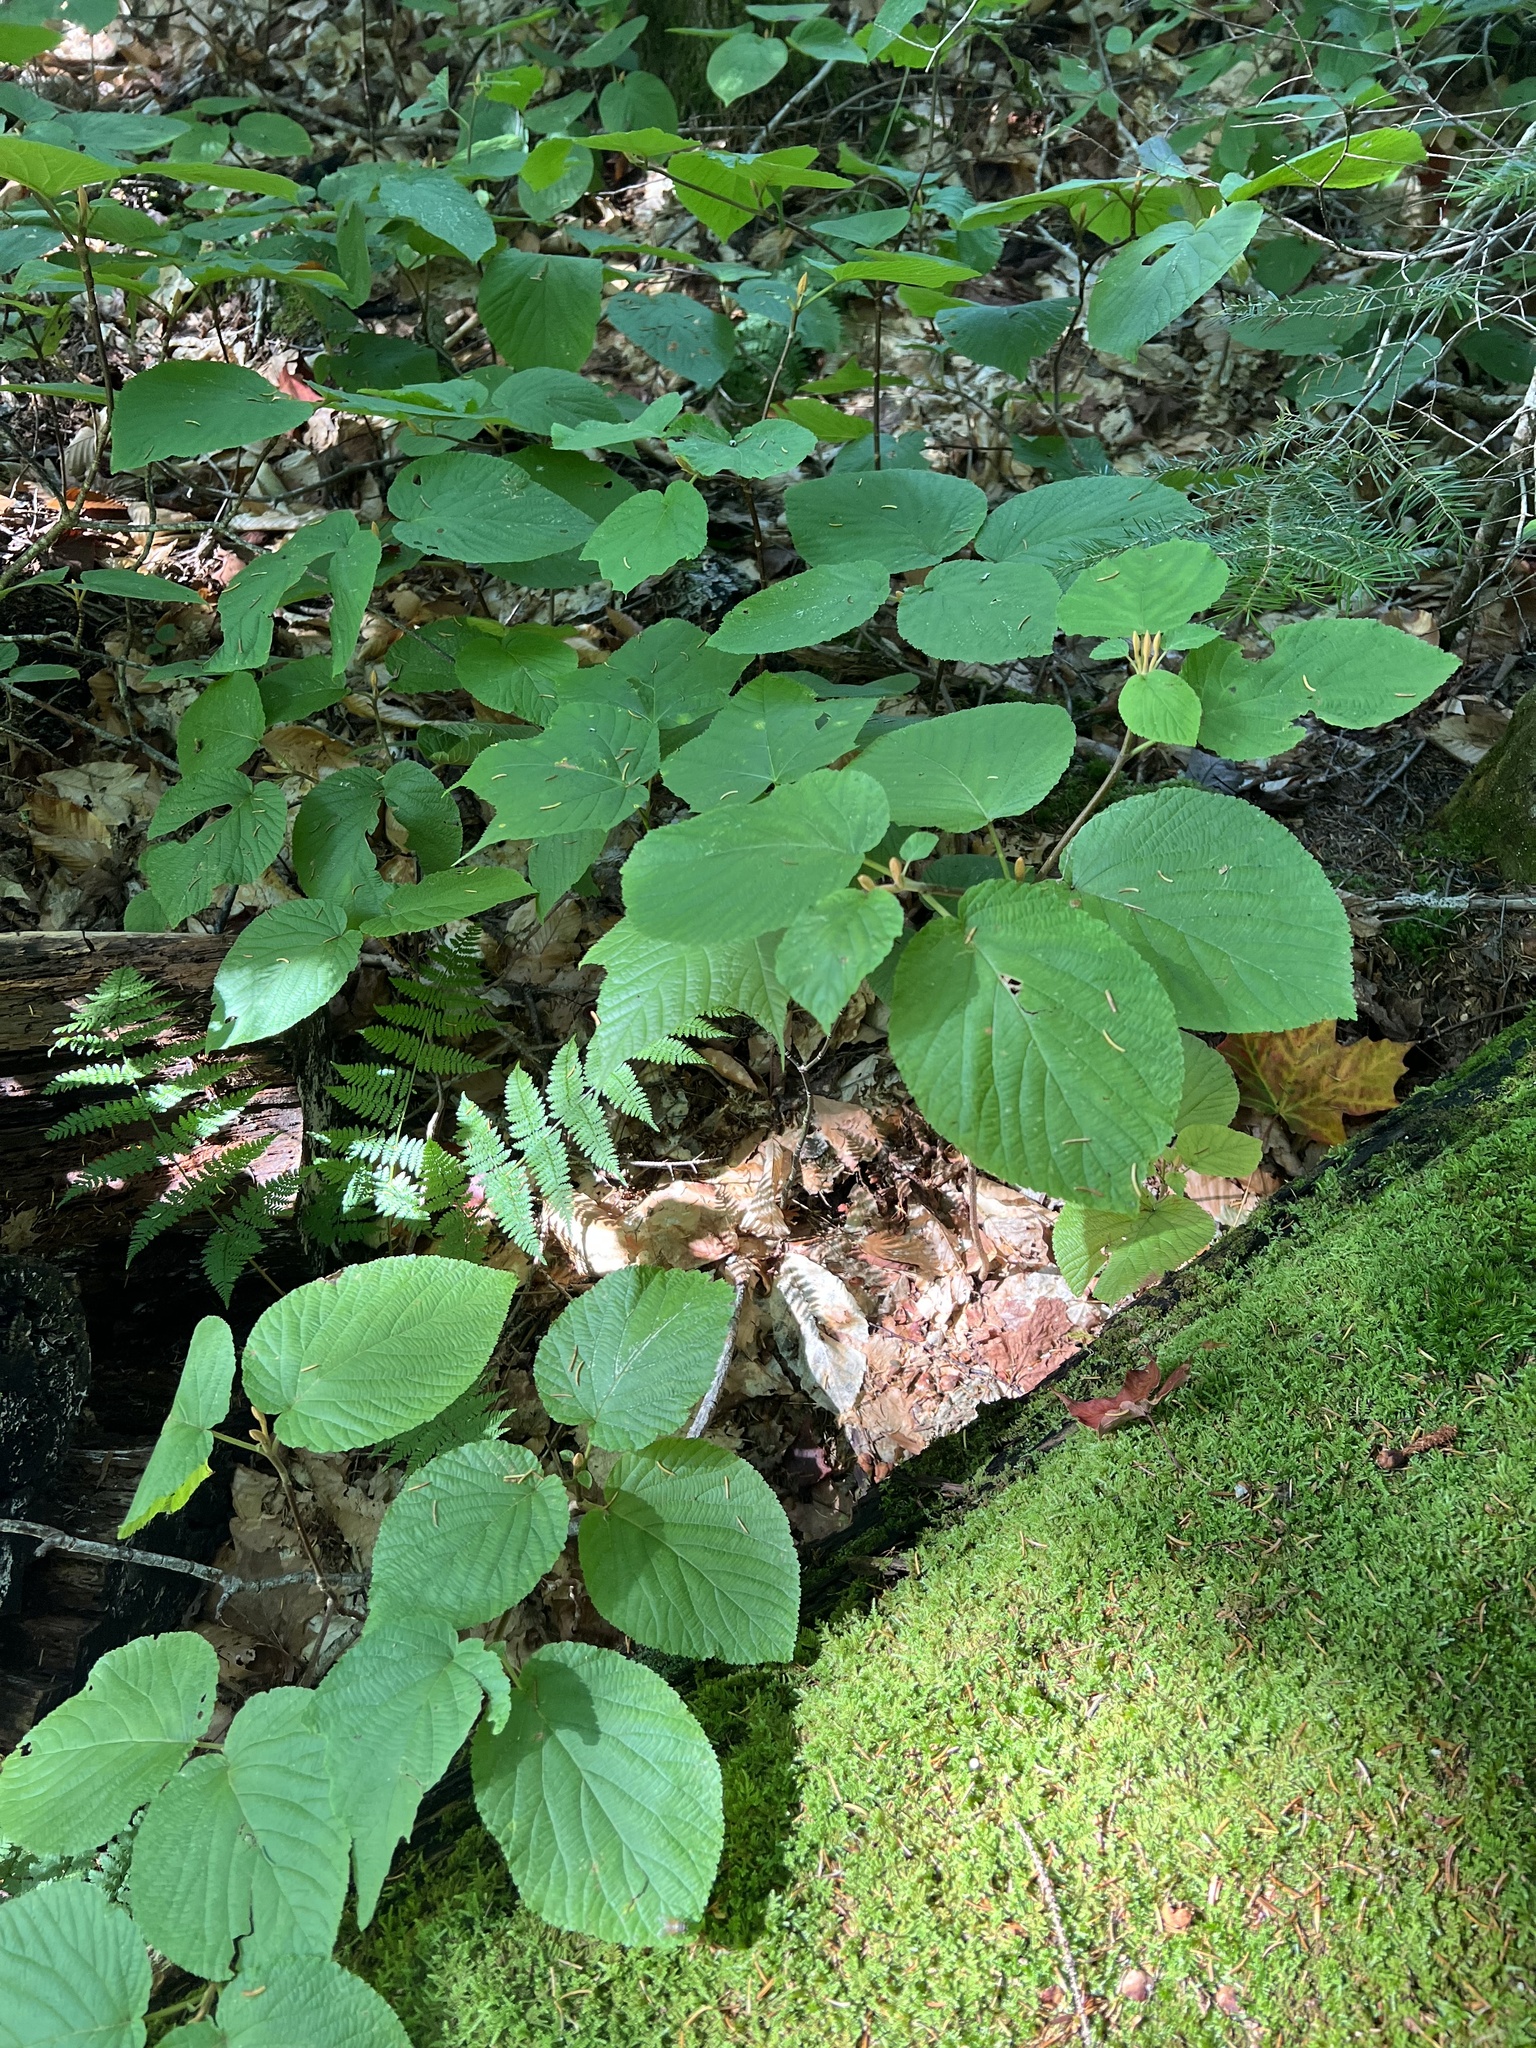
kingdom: Plantae
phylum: Tracheophyta
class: Magnoliopsida
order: Dipsacales
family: Viburnaceae
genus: Viburnum
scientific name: Viburnum lantanoides
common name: Hobblebush
